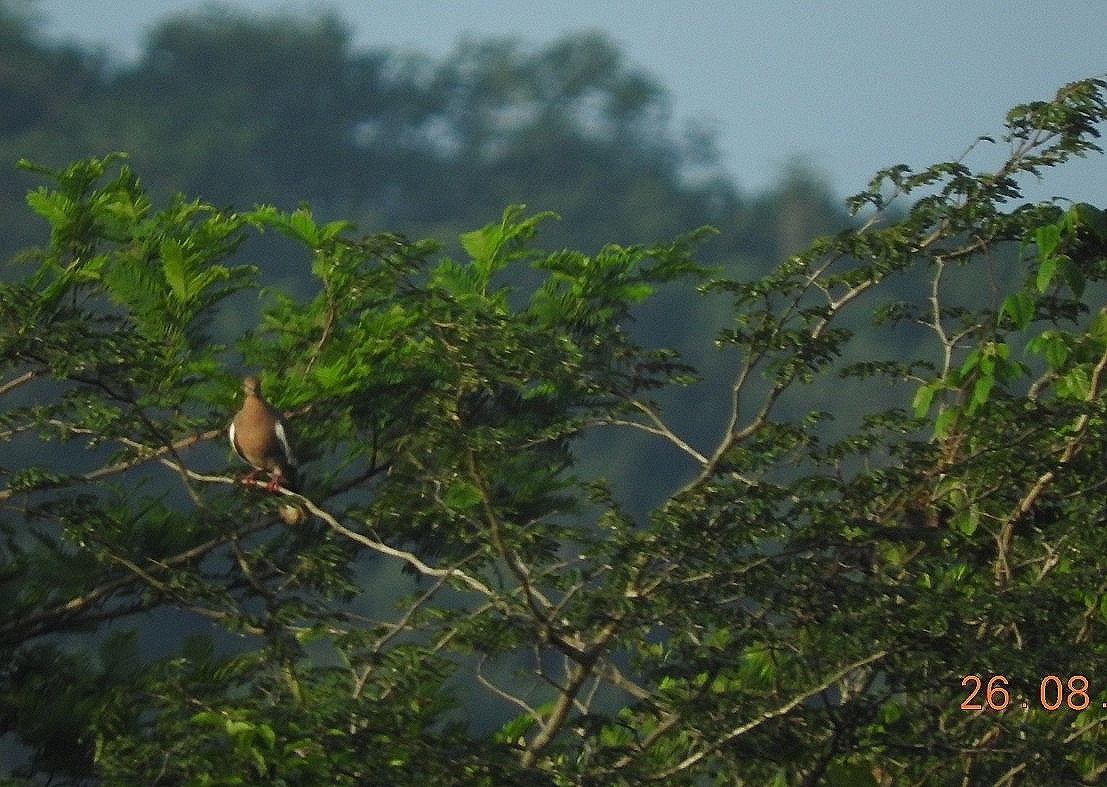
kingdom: Animalia
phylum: Chordata
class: Aves
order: Columbiformes
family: Columbidae
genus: Zenaida
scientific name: Zenaida asiatica
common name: White-winged dove
